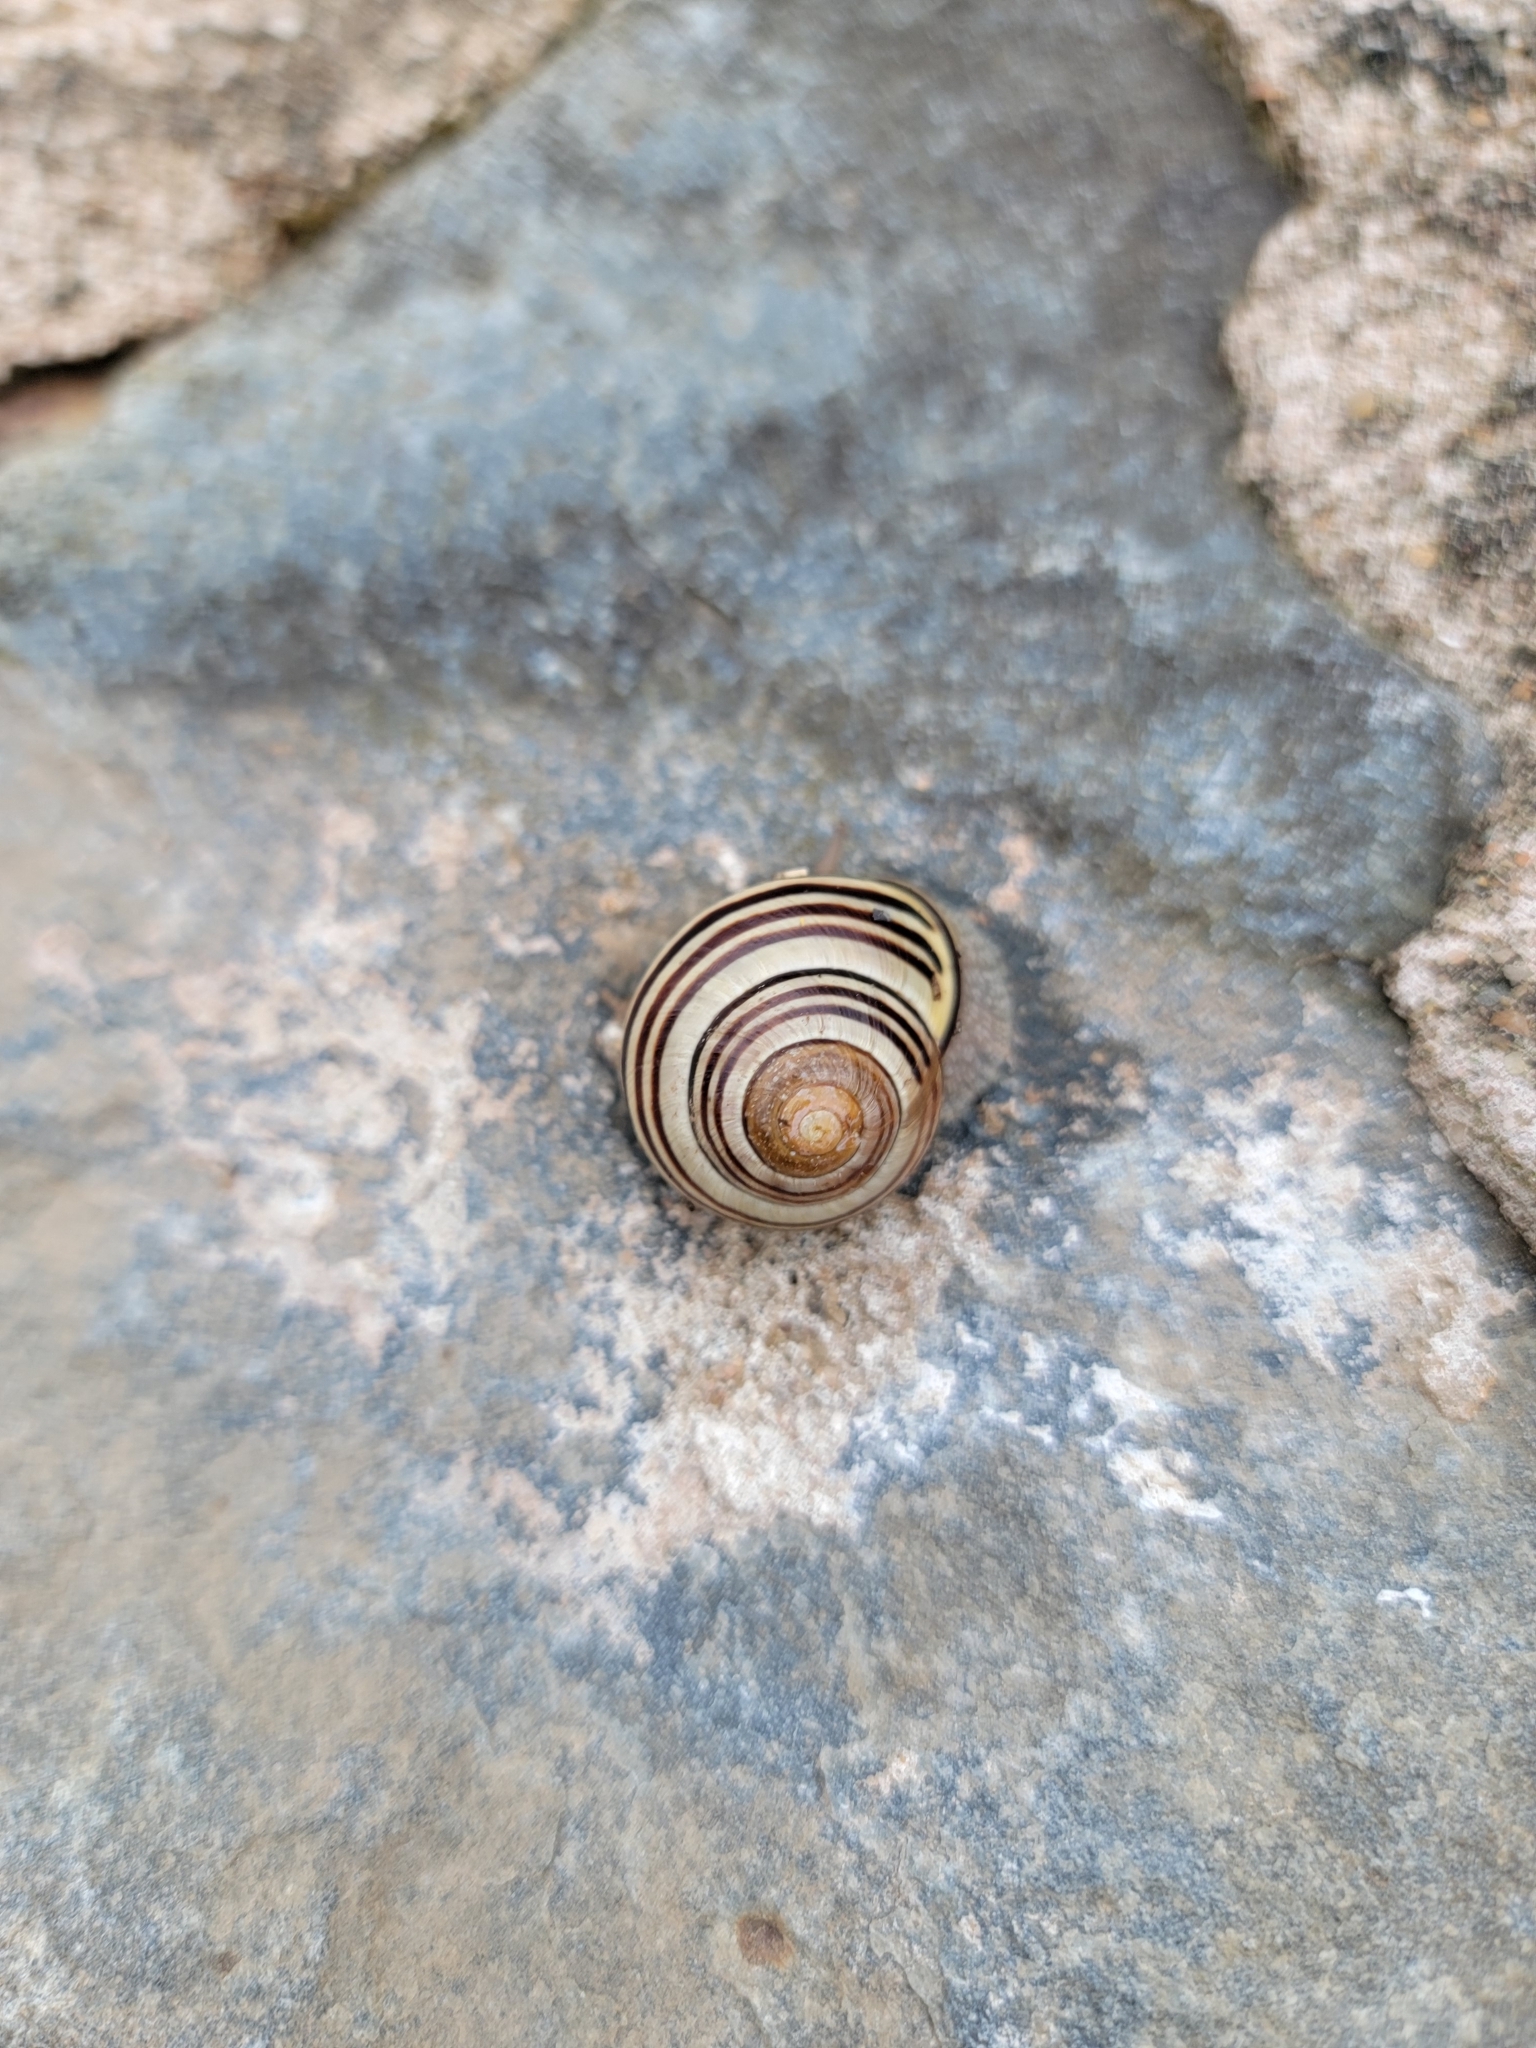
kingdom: Animalia
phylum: Mollusca
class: Gastropoda
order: Stylommatophora
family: Helicidae
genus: Cepaea
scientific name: Cepaea nemoralis
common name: Grovesnail
